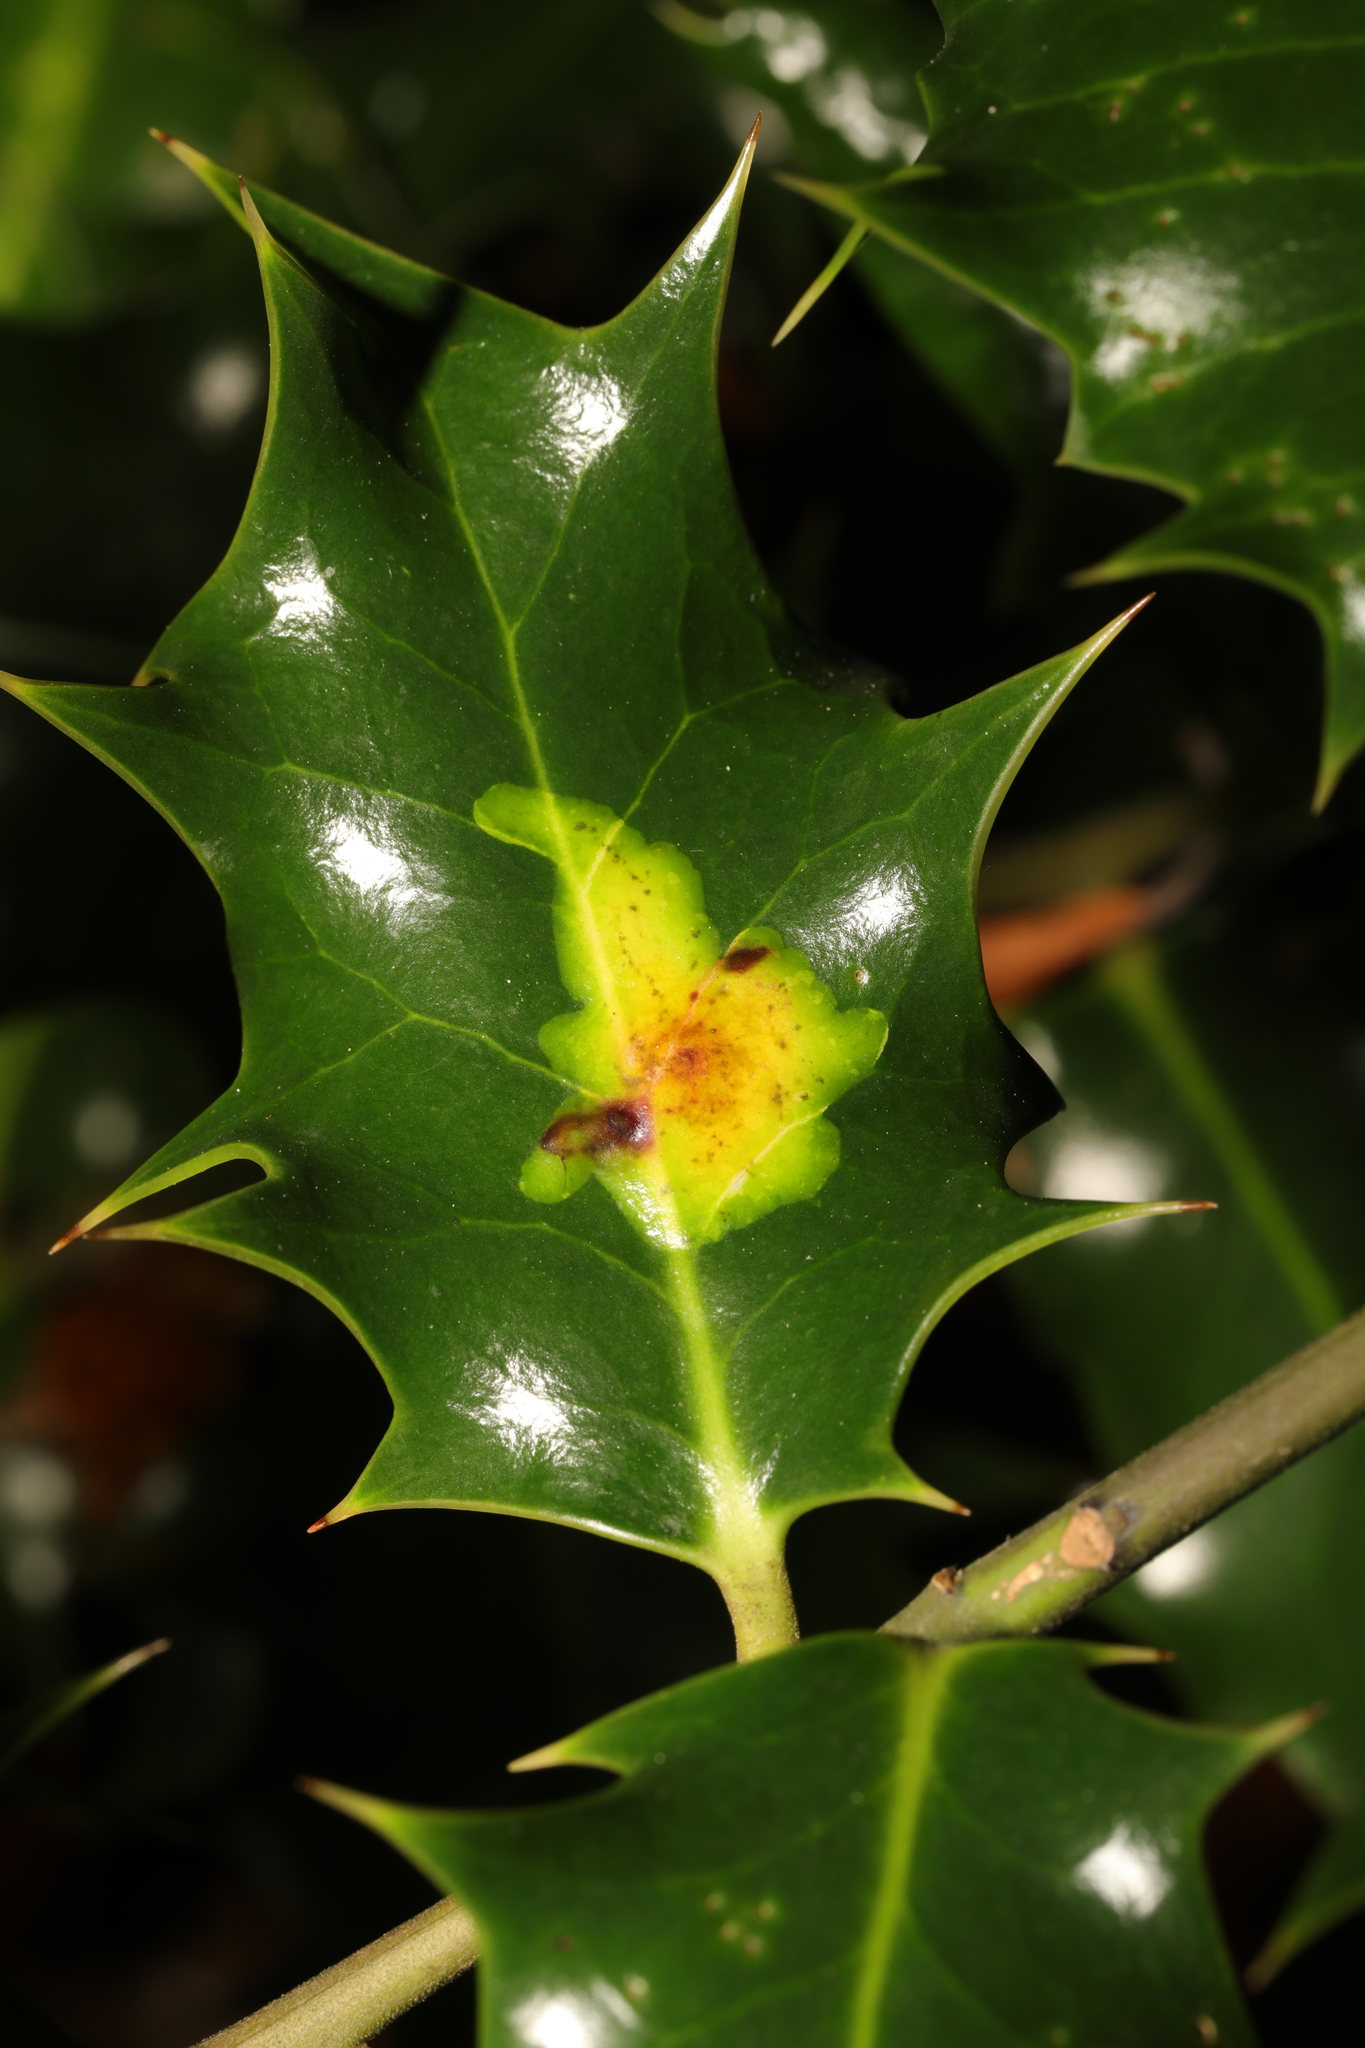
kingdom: Animalia
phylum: Arthropoda
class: Insecta
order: Diptera
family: Agromyzidae
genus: Phytomyza
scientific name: Phytomyza ilicis
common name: Holly leafminer
